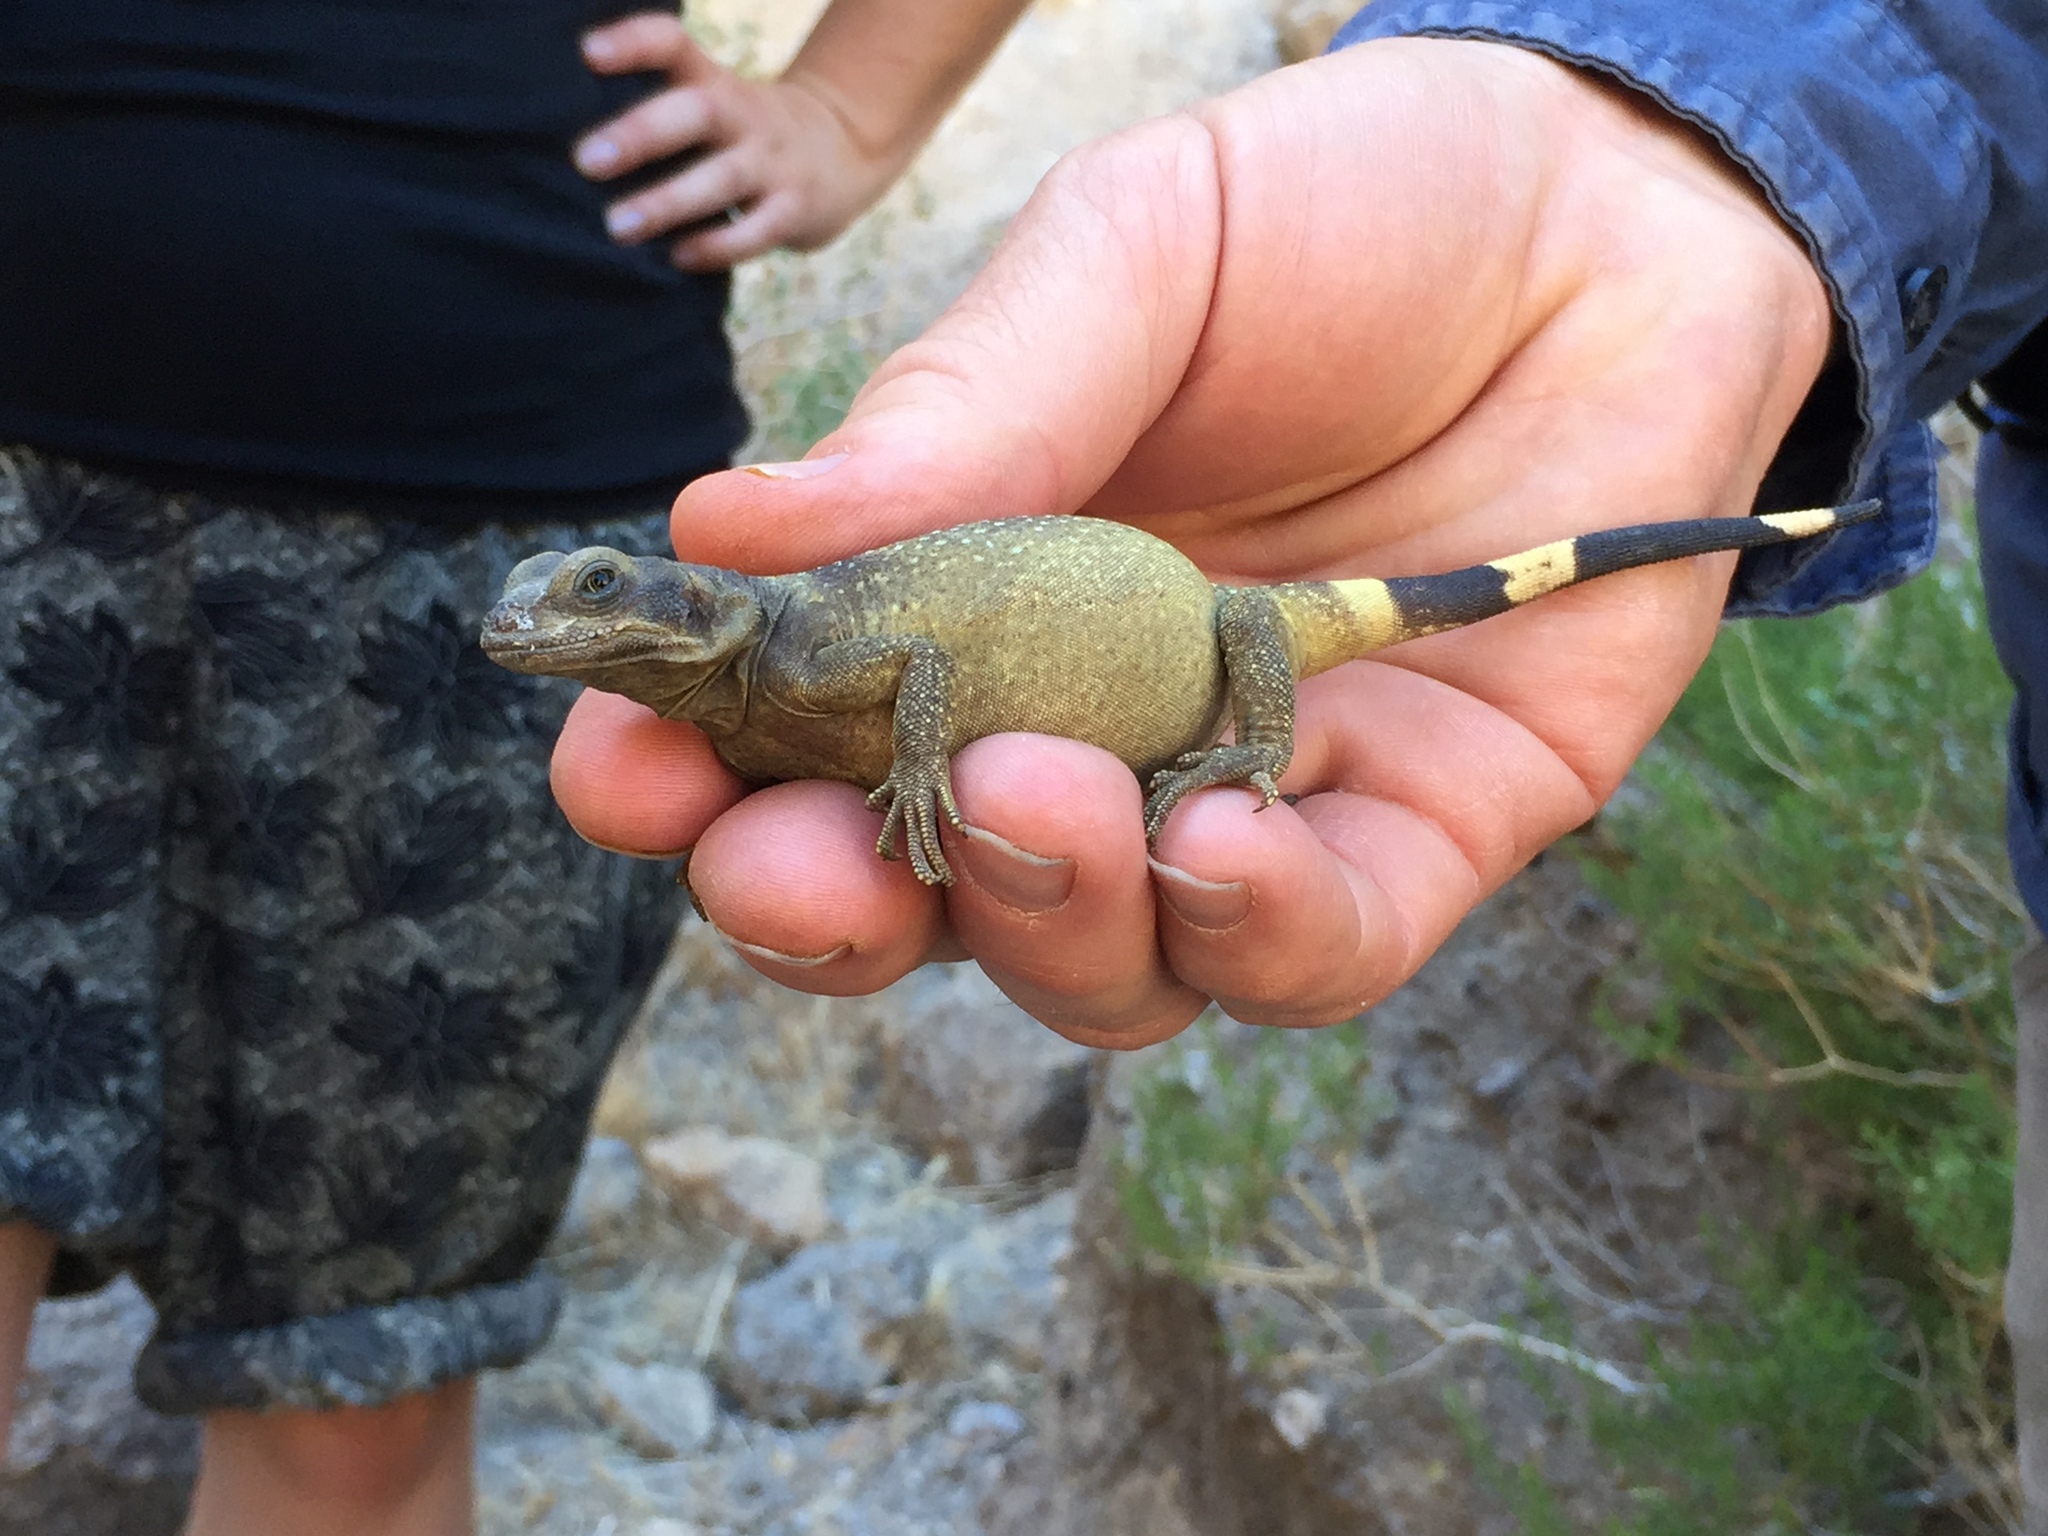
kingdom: Animalia
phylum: Chordata
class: Squamata
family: Iguanidae
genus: Sauromalus
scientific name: Sauromalus ater
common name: Northern chuckwalla
